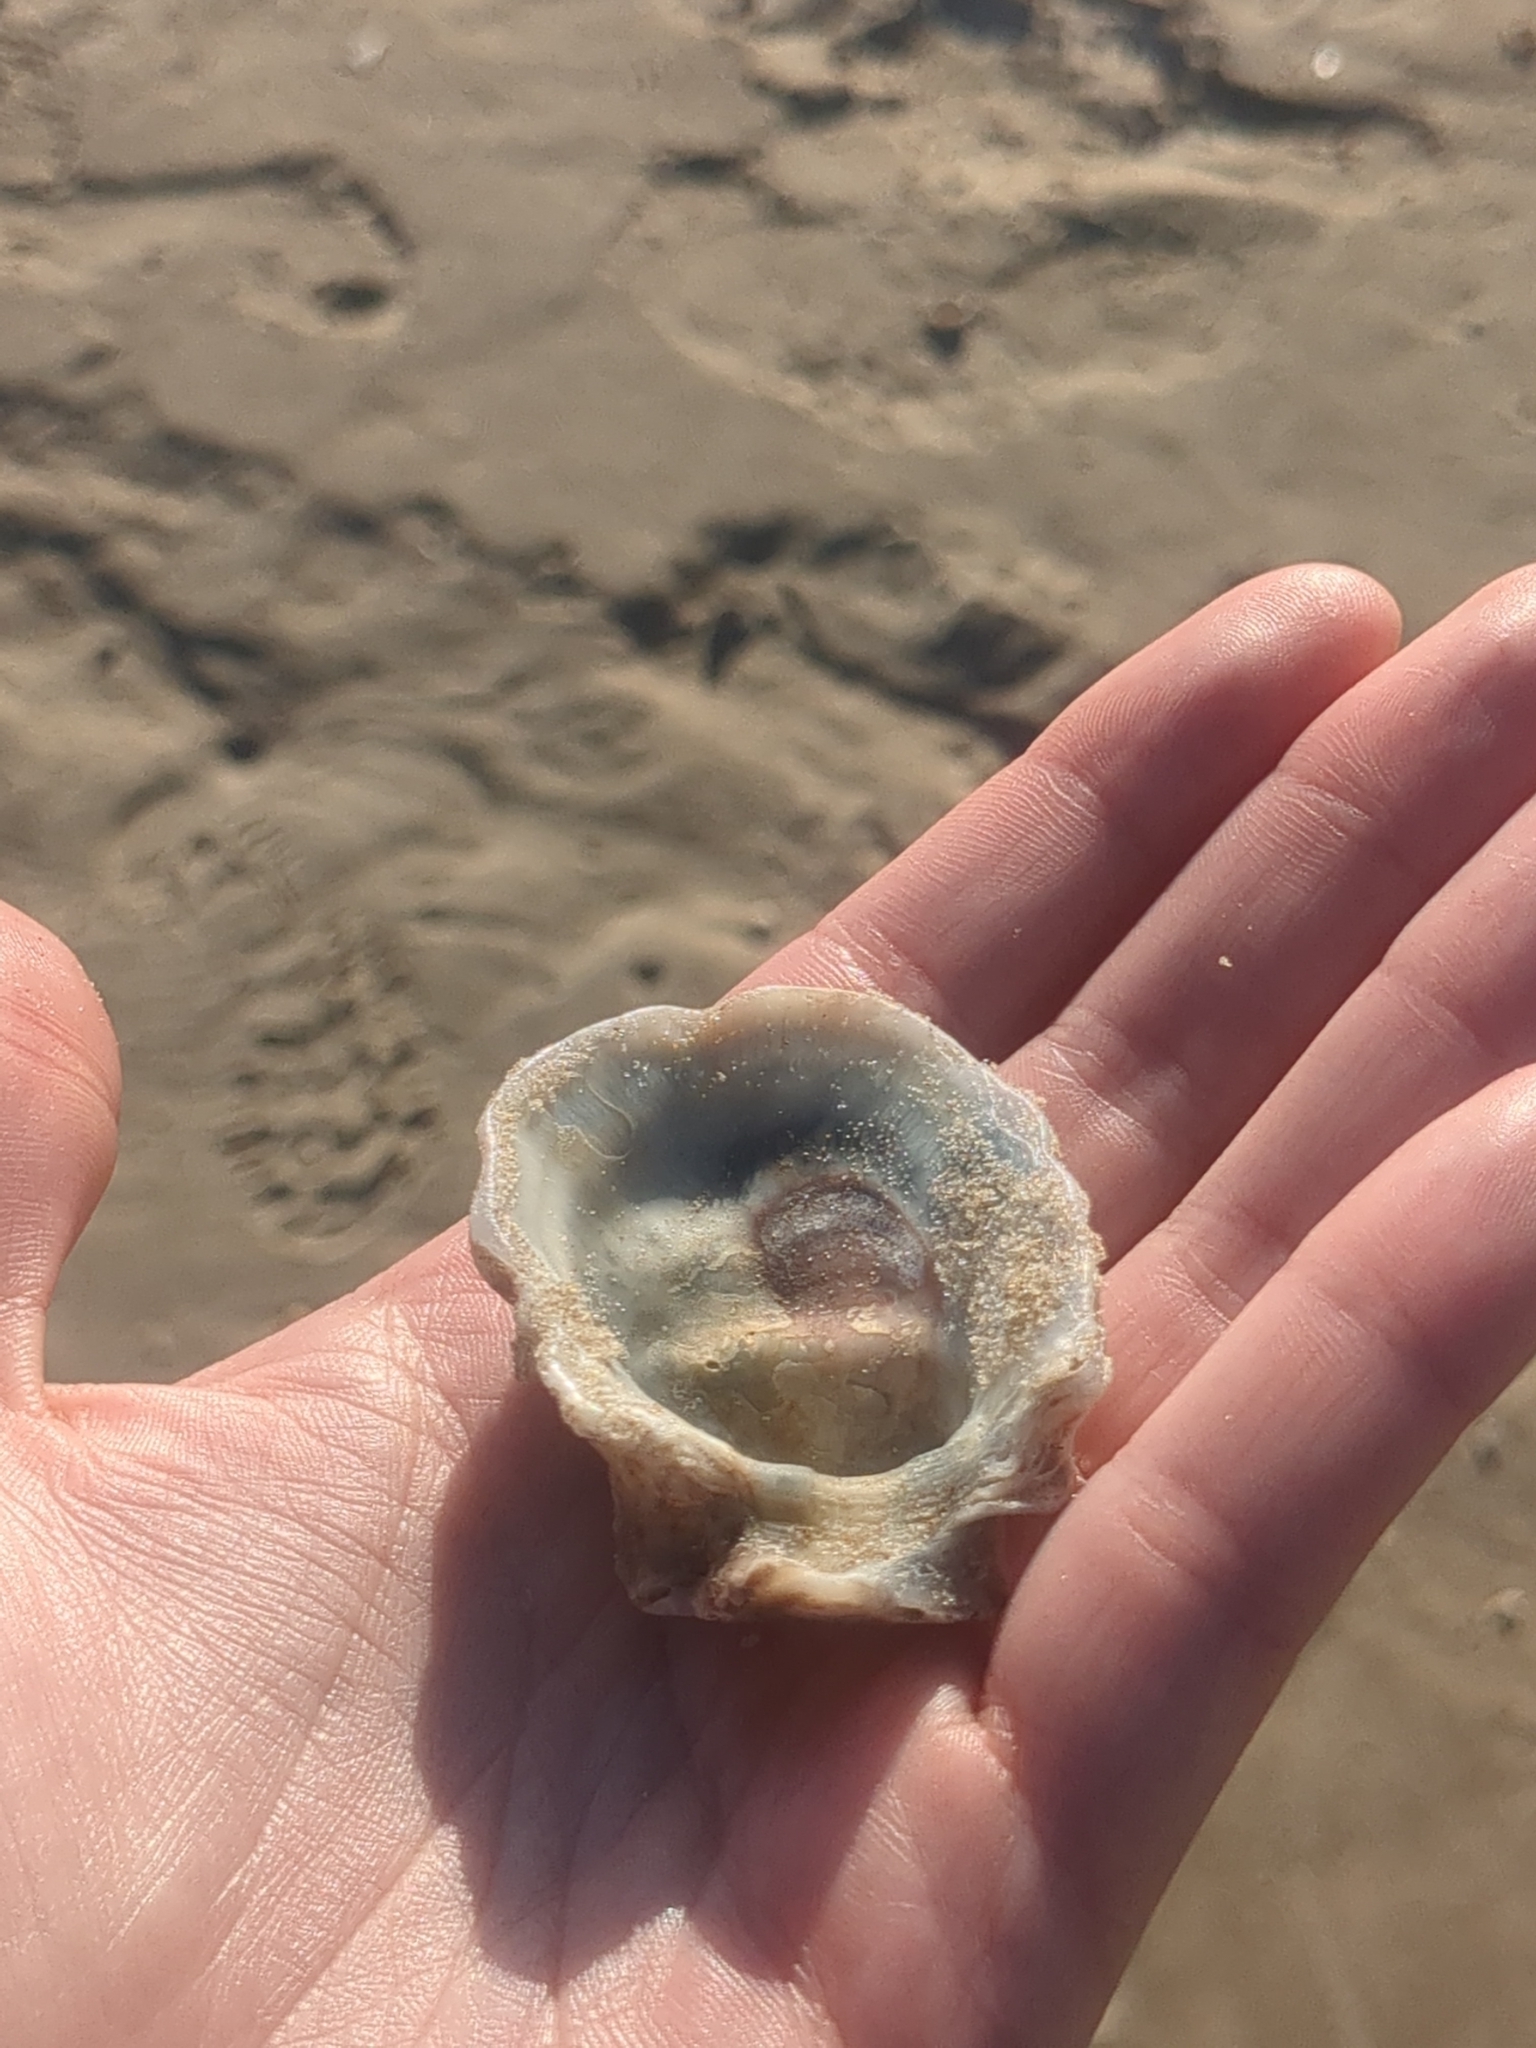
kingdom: Animalia
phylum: Mollusca
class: Bivalvia
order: Ostreida
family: Ostreidae
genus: Crassostrea
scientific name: Crassostrea virginica
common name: American oyster
